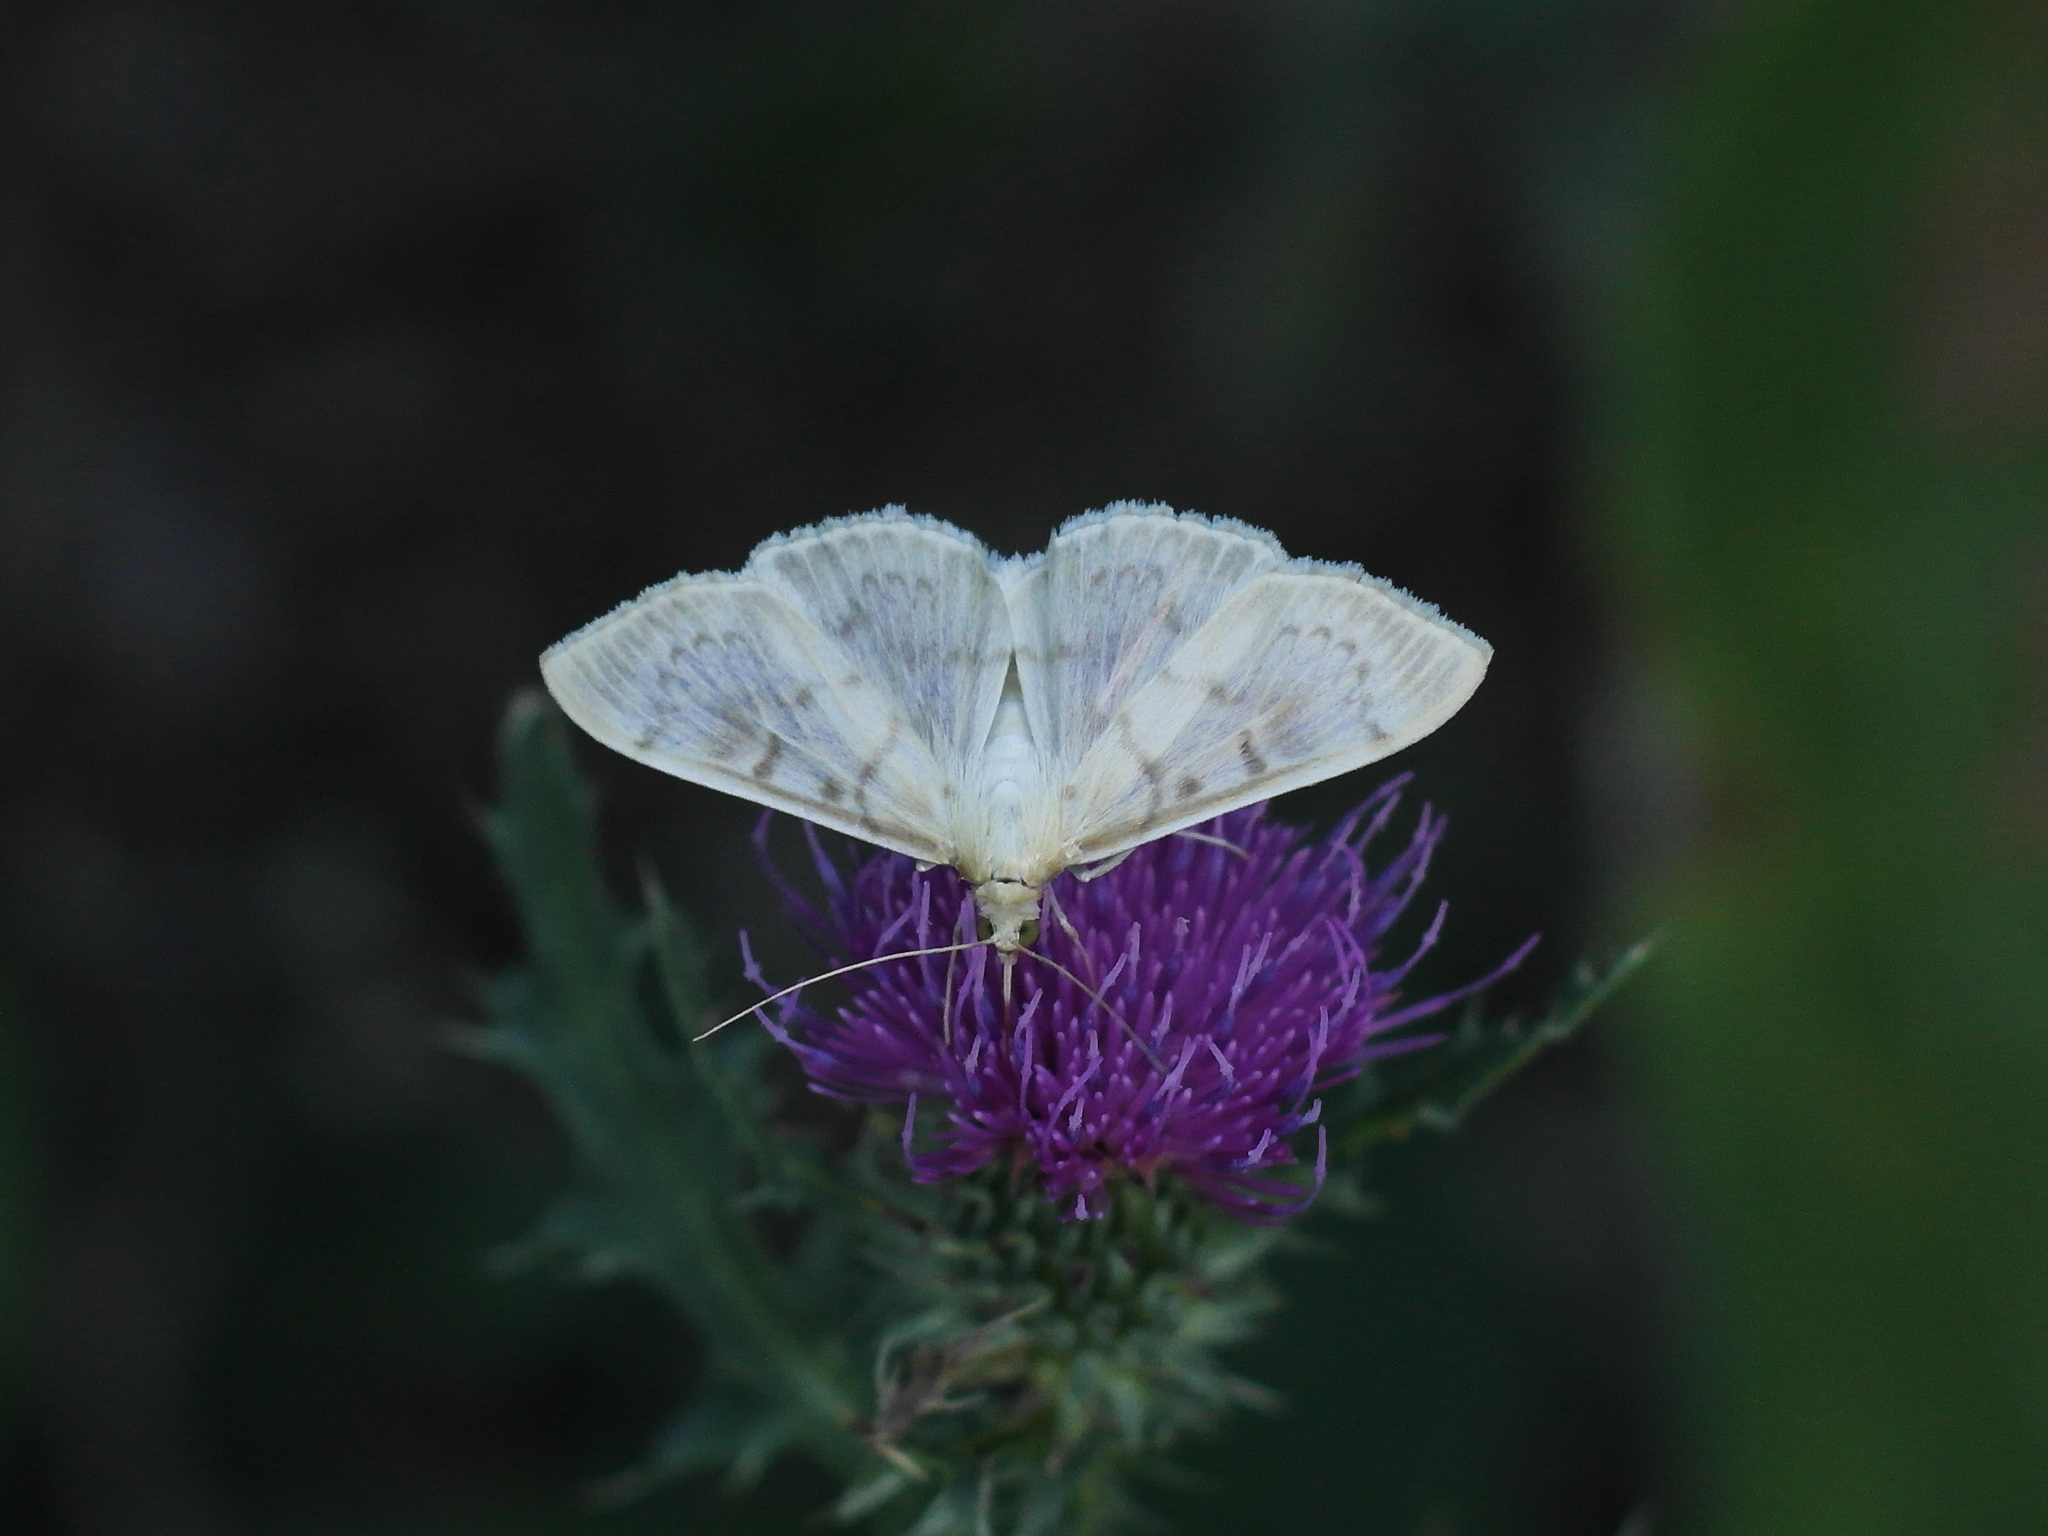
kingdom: Animalia
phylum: Arthropoda
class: Insecta
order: Lepidoptera
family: Crambidae
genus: Patania
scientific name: Patania ruralis
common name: Mother of pearl
